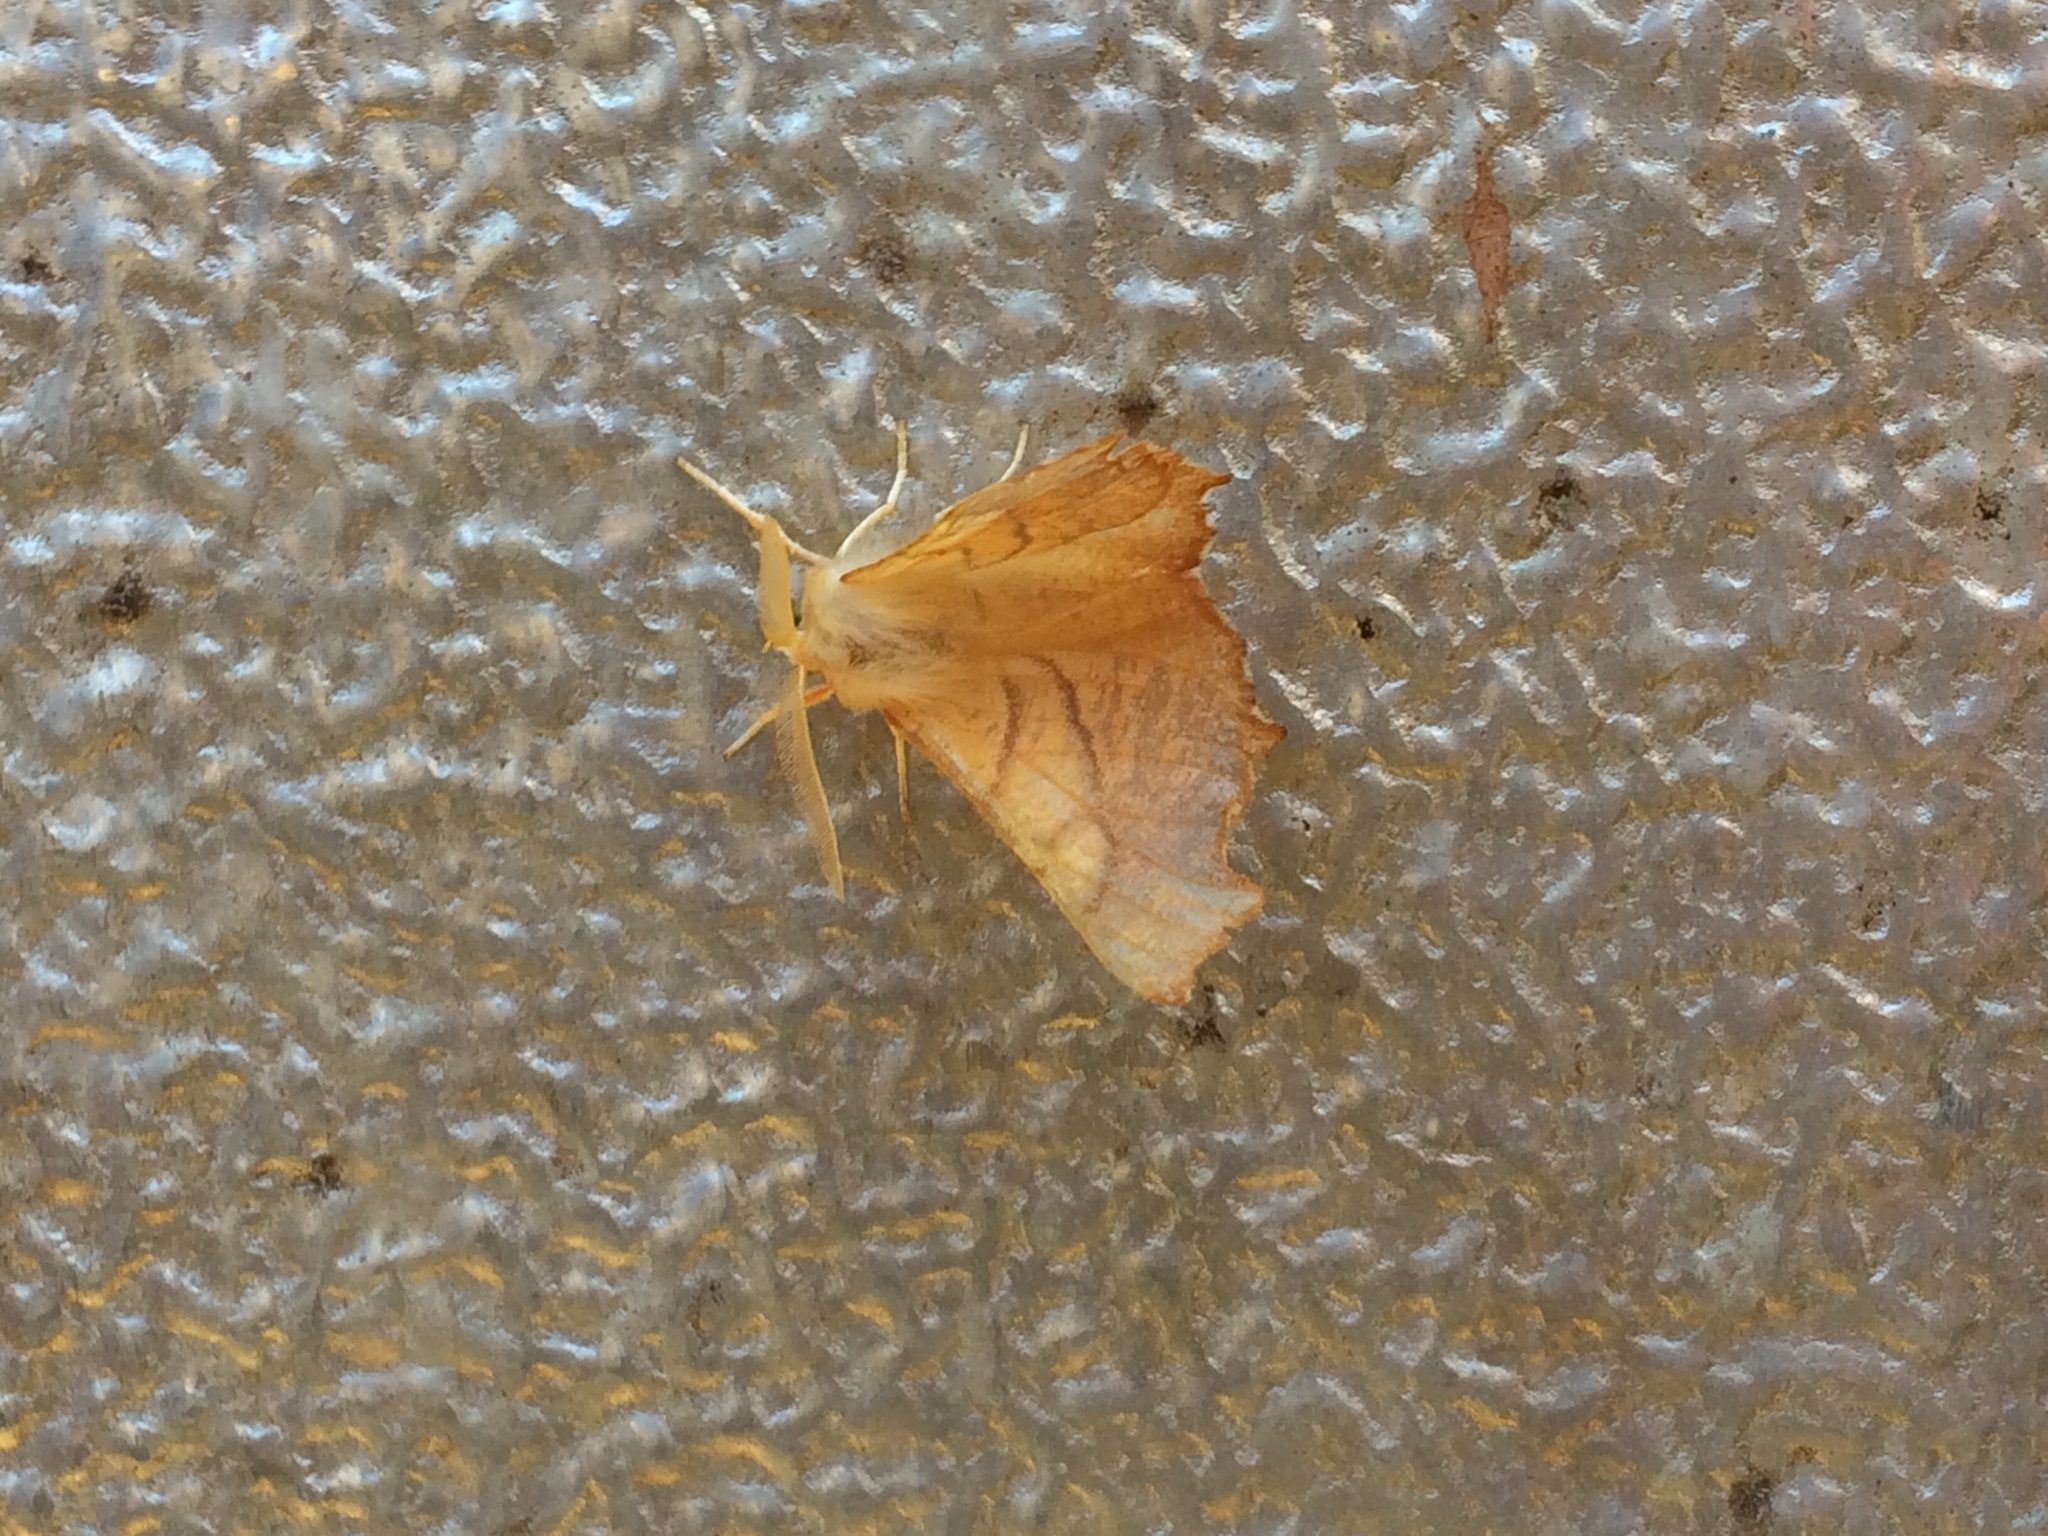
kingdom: Animalia
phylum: Arthropoda
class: Insecta
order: Lepidoptera
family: Geometridae
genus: Ennomos
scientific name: Ennomos fuscantaria
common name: Dusky thorn
